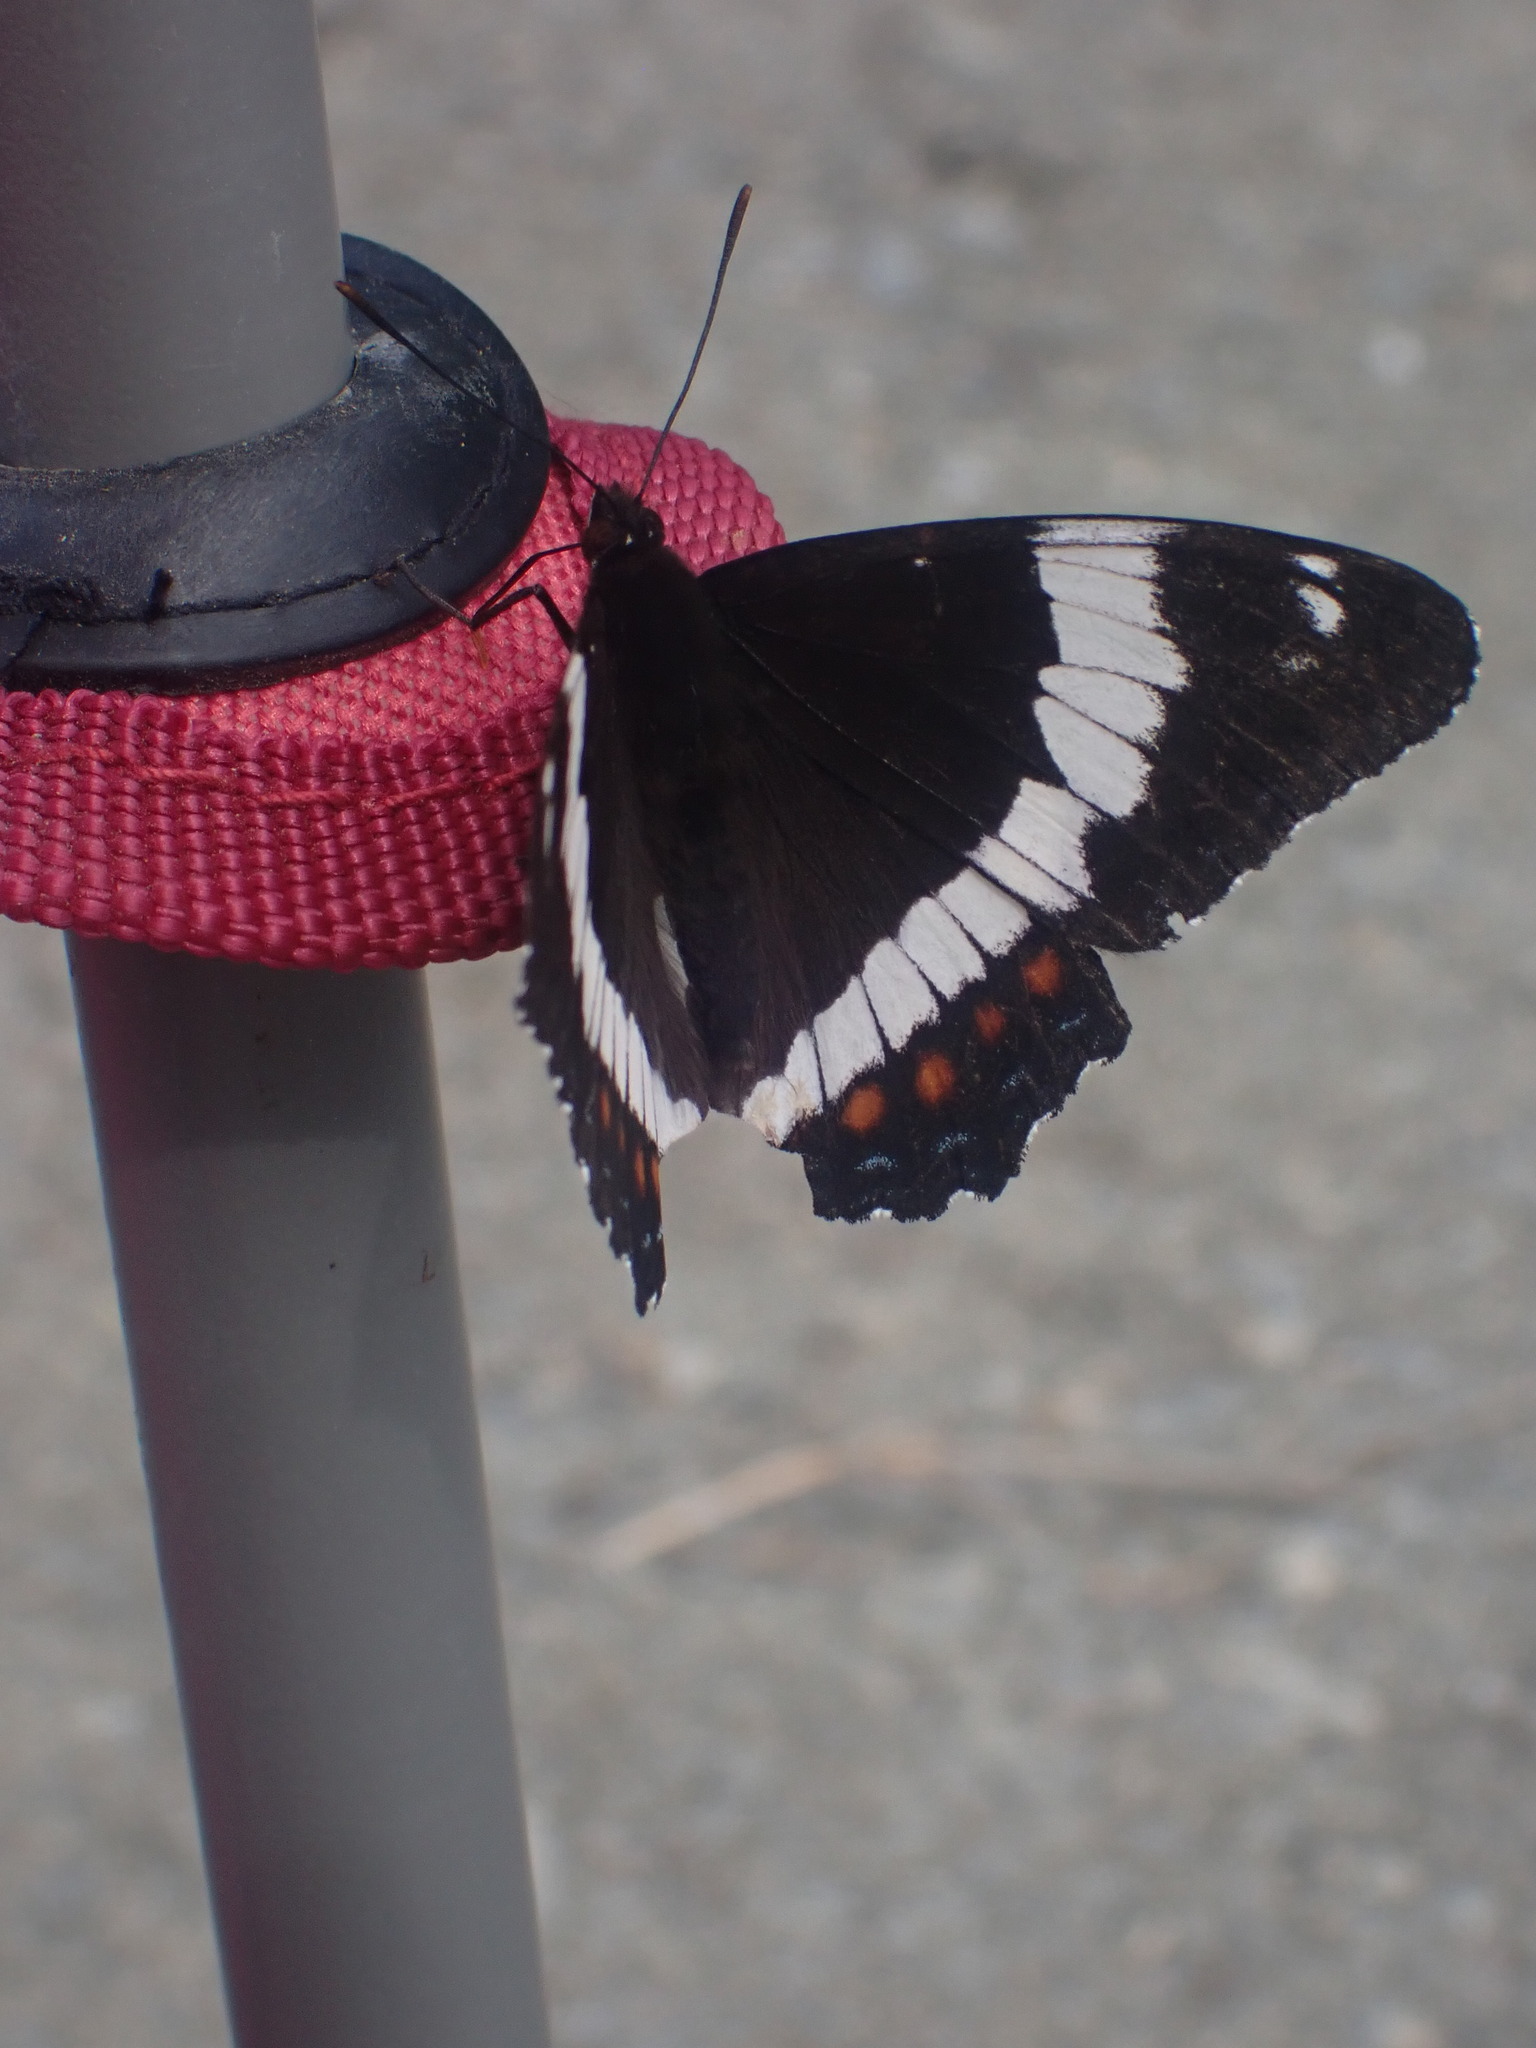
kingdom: Animalia
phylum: Arthropoda
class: Insecta
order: Lepidoptera
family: Nymphalidae
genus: Limenitis
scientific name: Limenitis arthemis
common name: Red-spotted admiral
